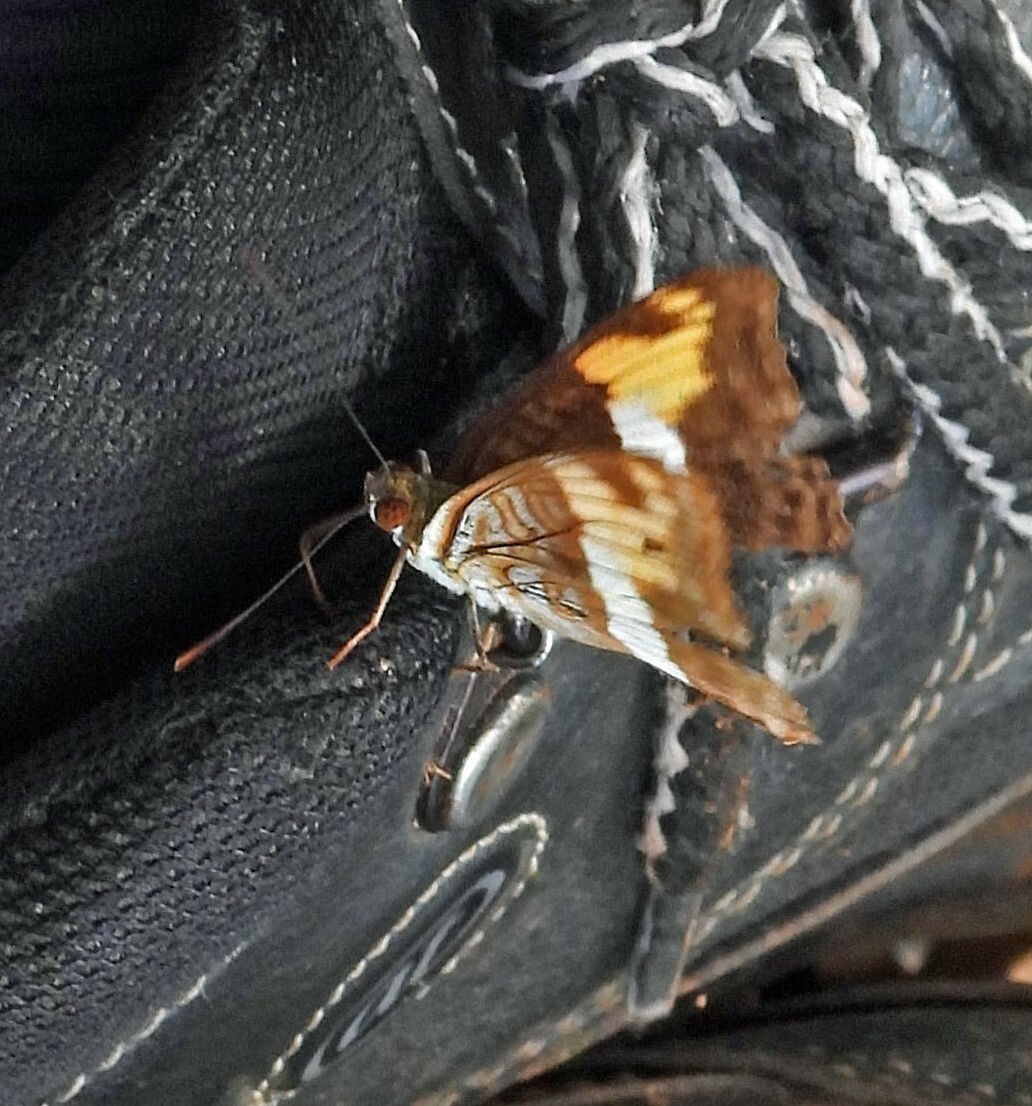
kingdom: Animalia
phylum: Arthropoda
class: Insecta
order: Lepidoptera
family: Nymphalidae
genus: Limenitis
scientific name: Limenitis malea
